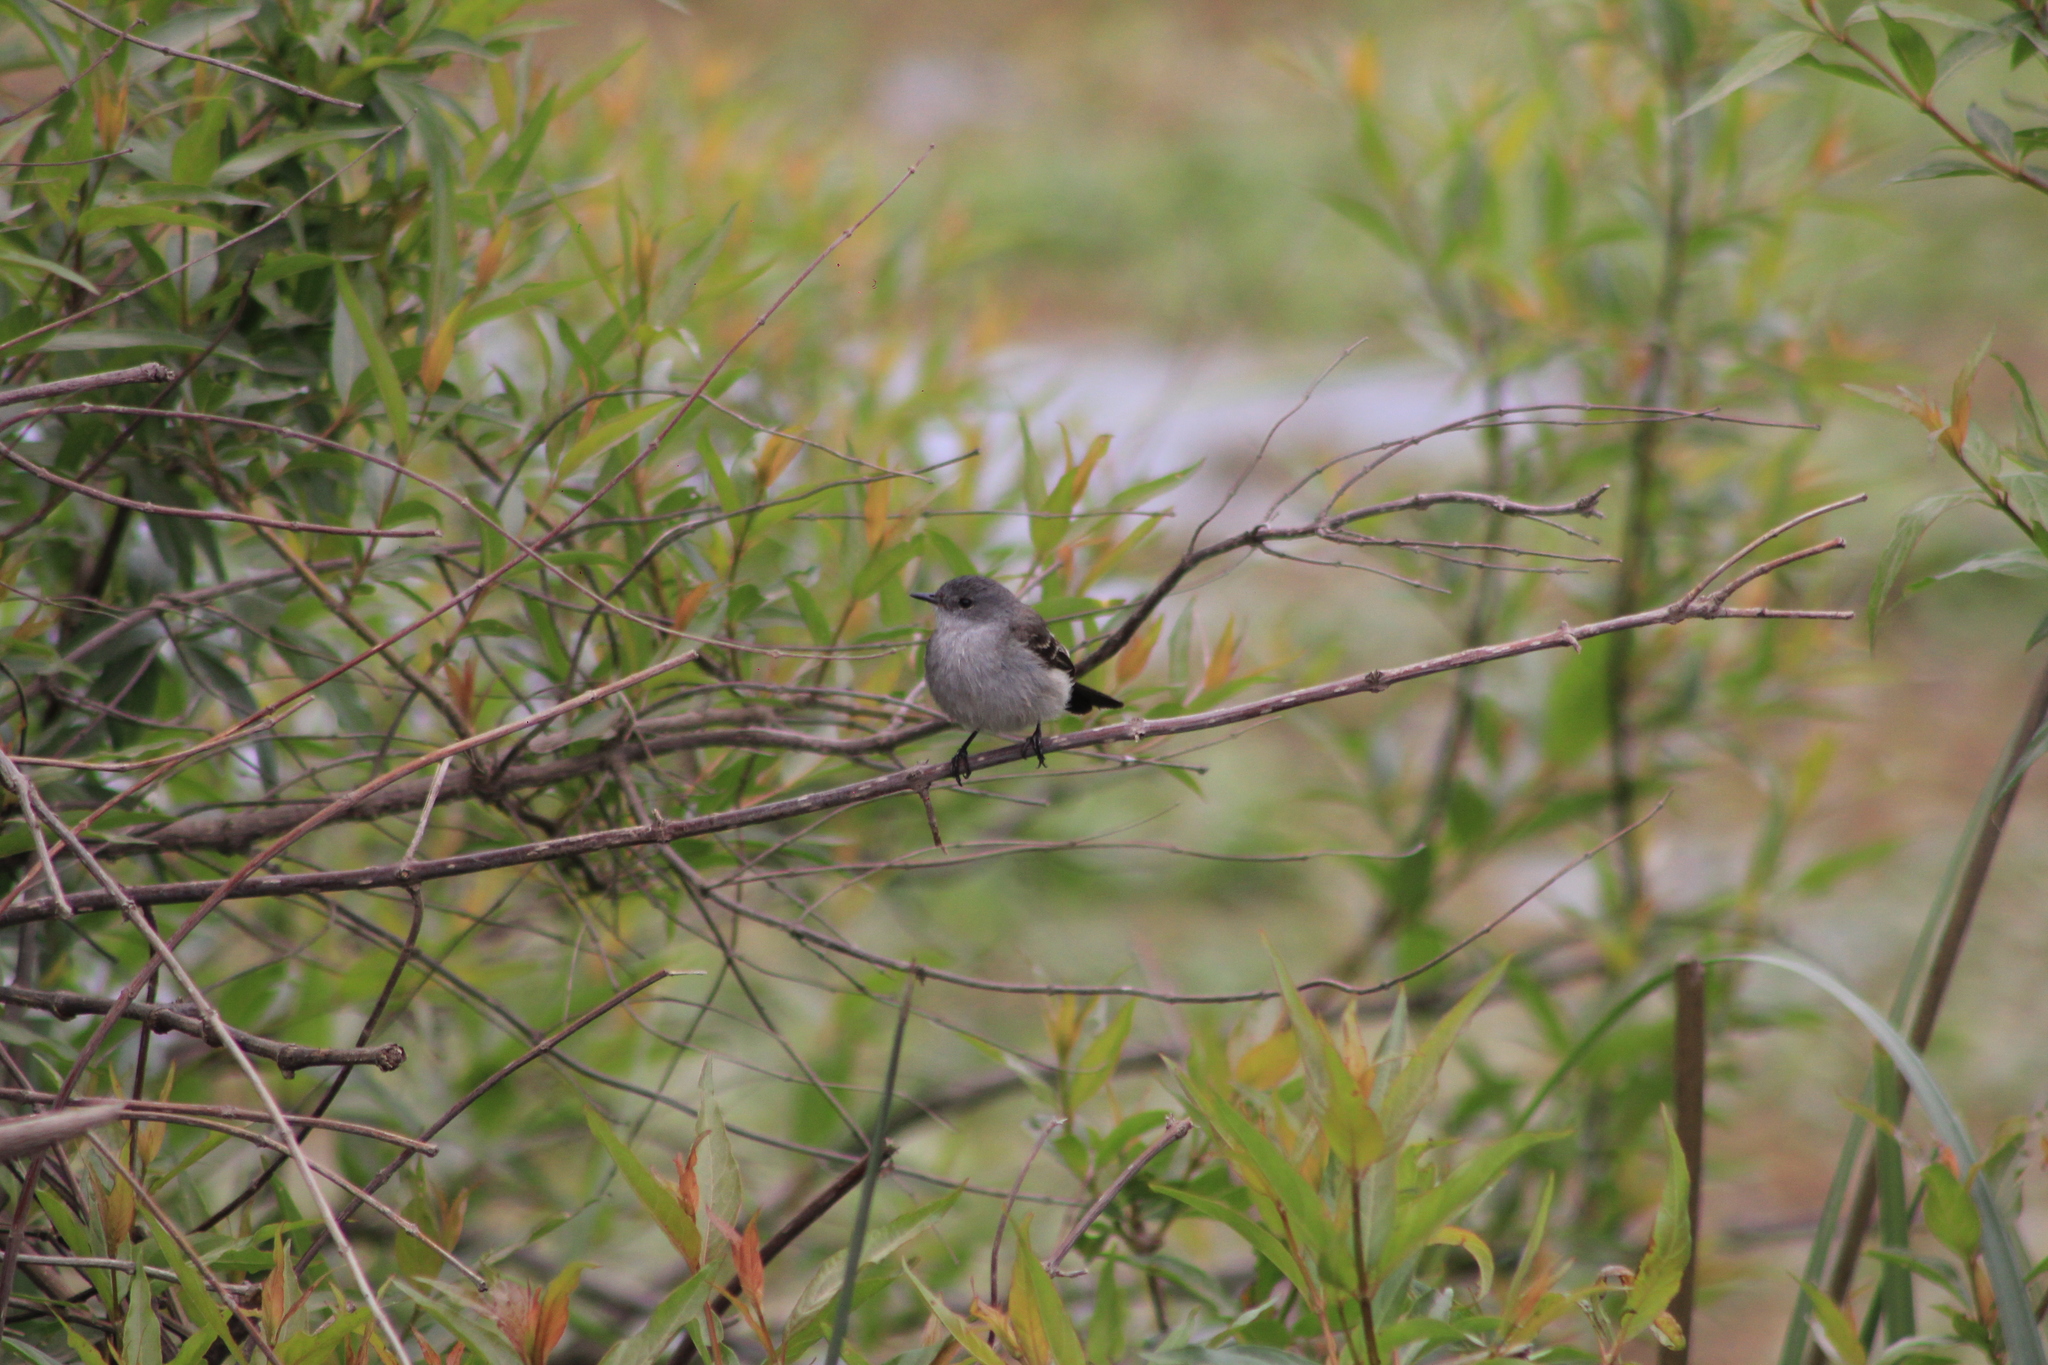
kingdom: Animalia
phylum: Chordata
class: Aves
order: Passeriformes
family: Tyrannidae
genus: Serpophaga
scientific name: Serpophaga nigricans
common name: Sooty tyrannulet
